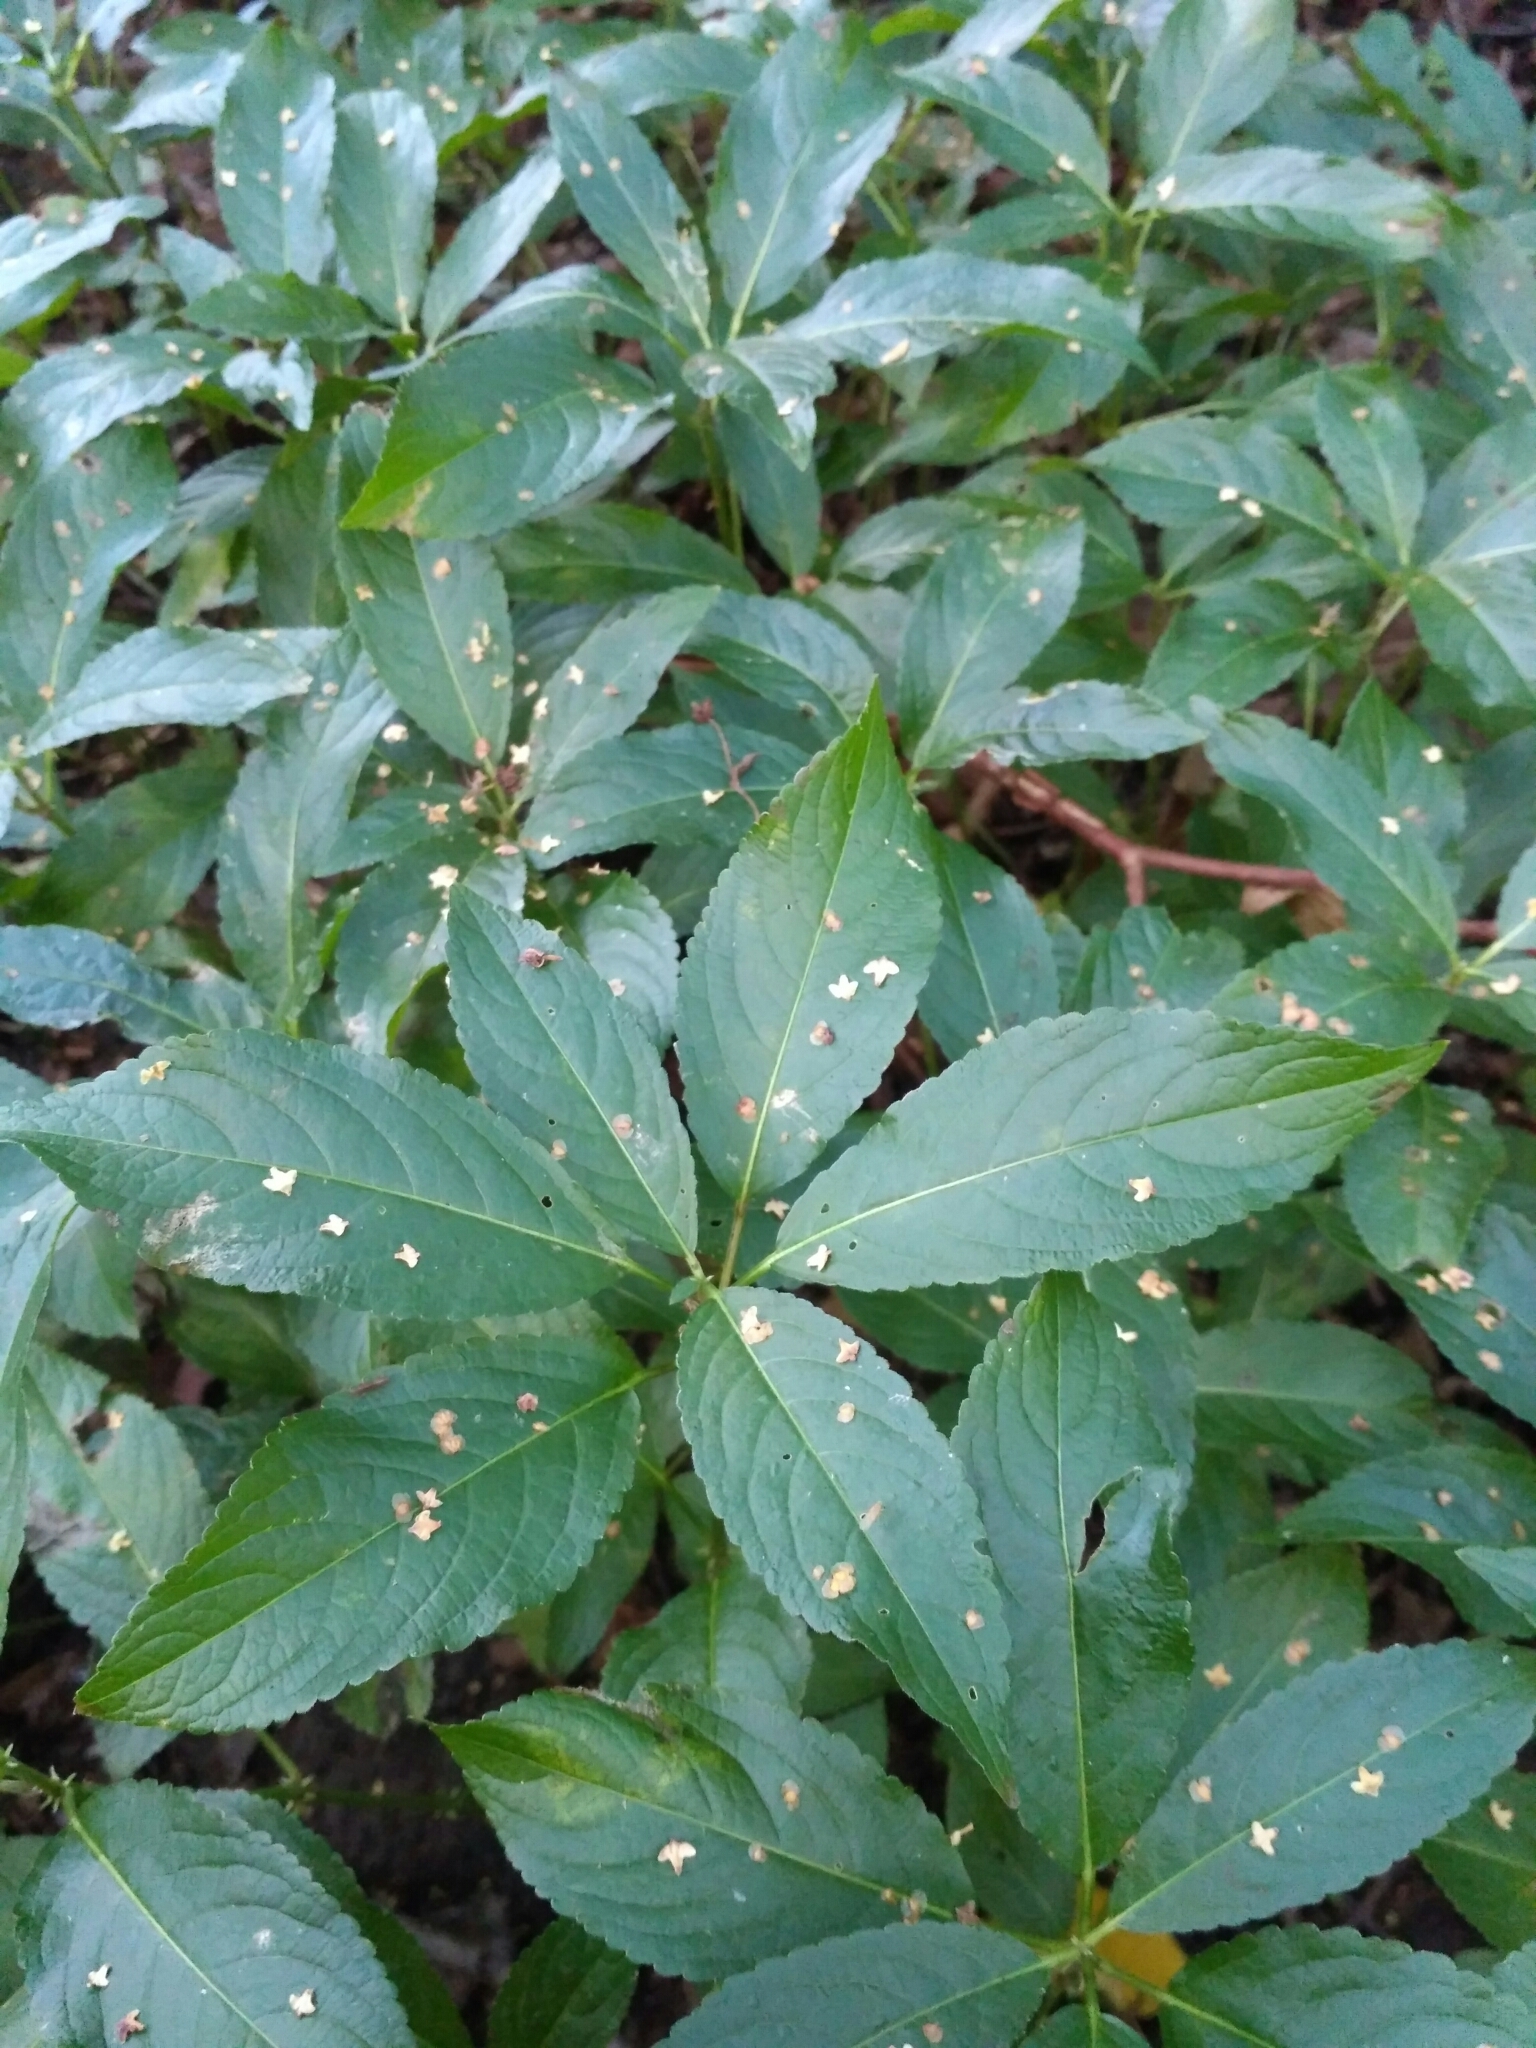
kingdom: Plantae
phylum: Tracheophyta
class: Magnoliopsida
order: Malpighiales
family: Euphorbiaceae
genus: Mercurialis
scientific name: Mercurialis perennis
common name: Dog mercury
